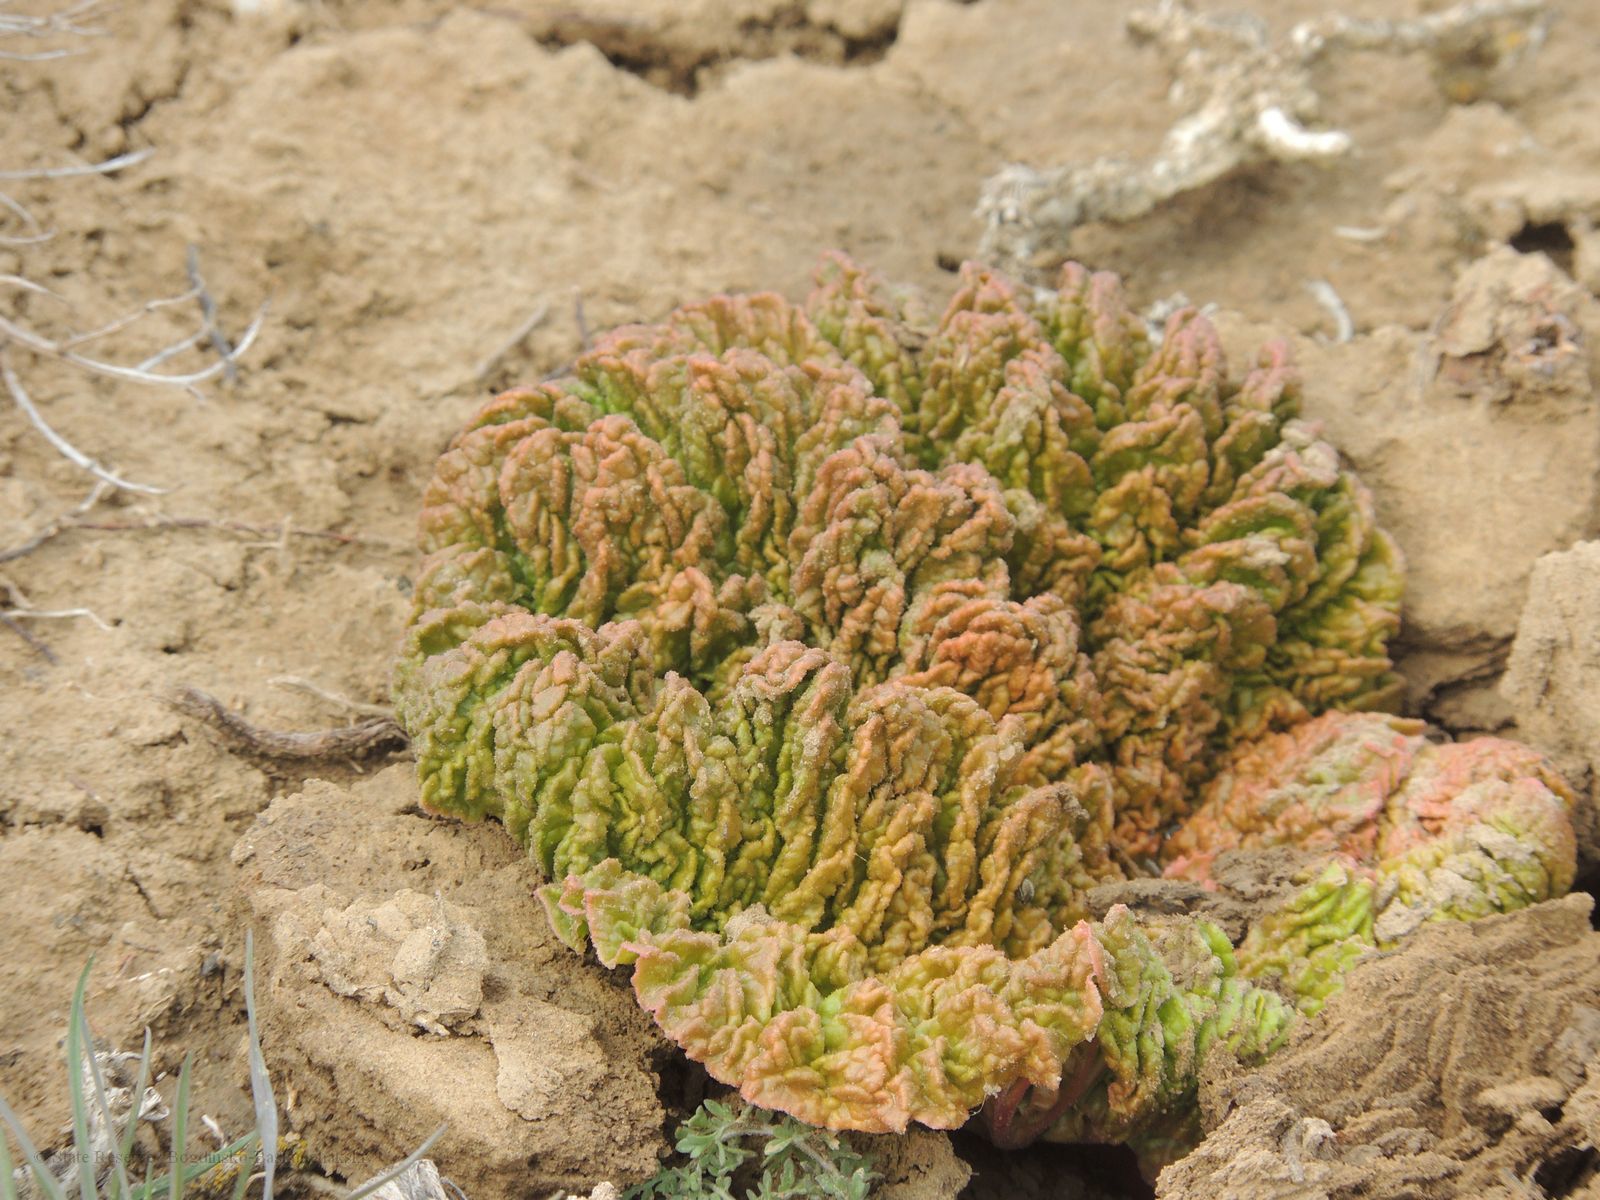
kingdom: Plantae
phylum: Tracheophyta
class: Magnoliopsida
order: Caryophyllales
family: Polygonaceae
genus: Rheum
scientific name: Rheum tataricum
